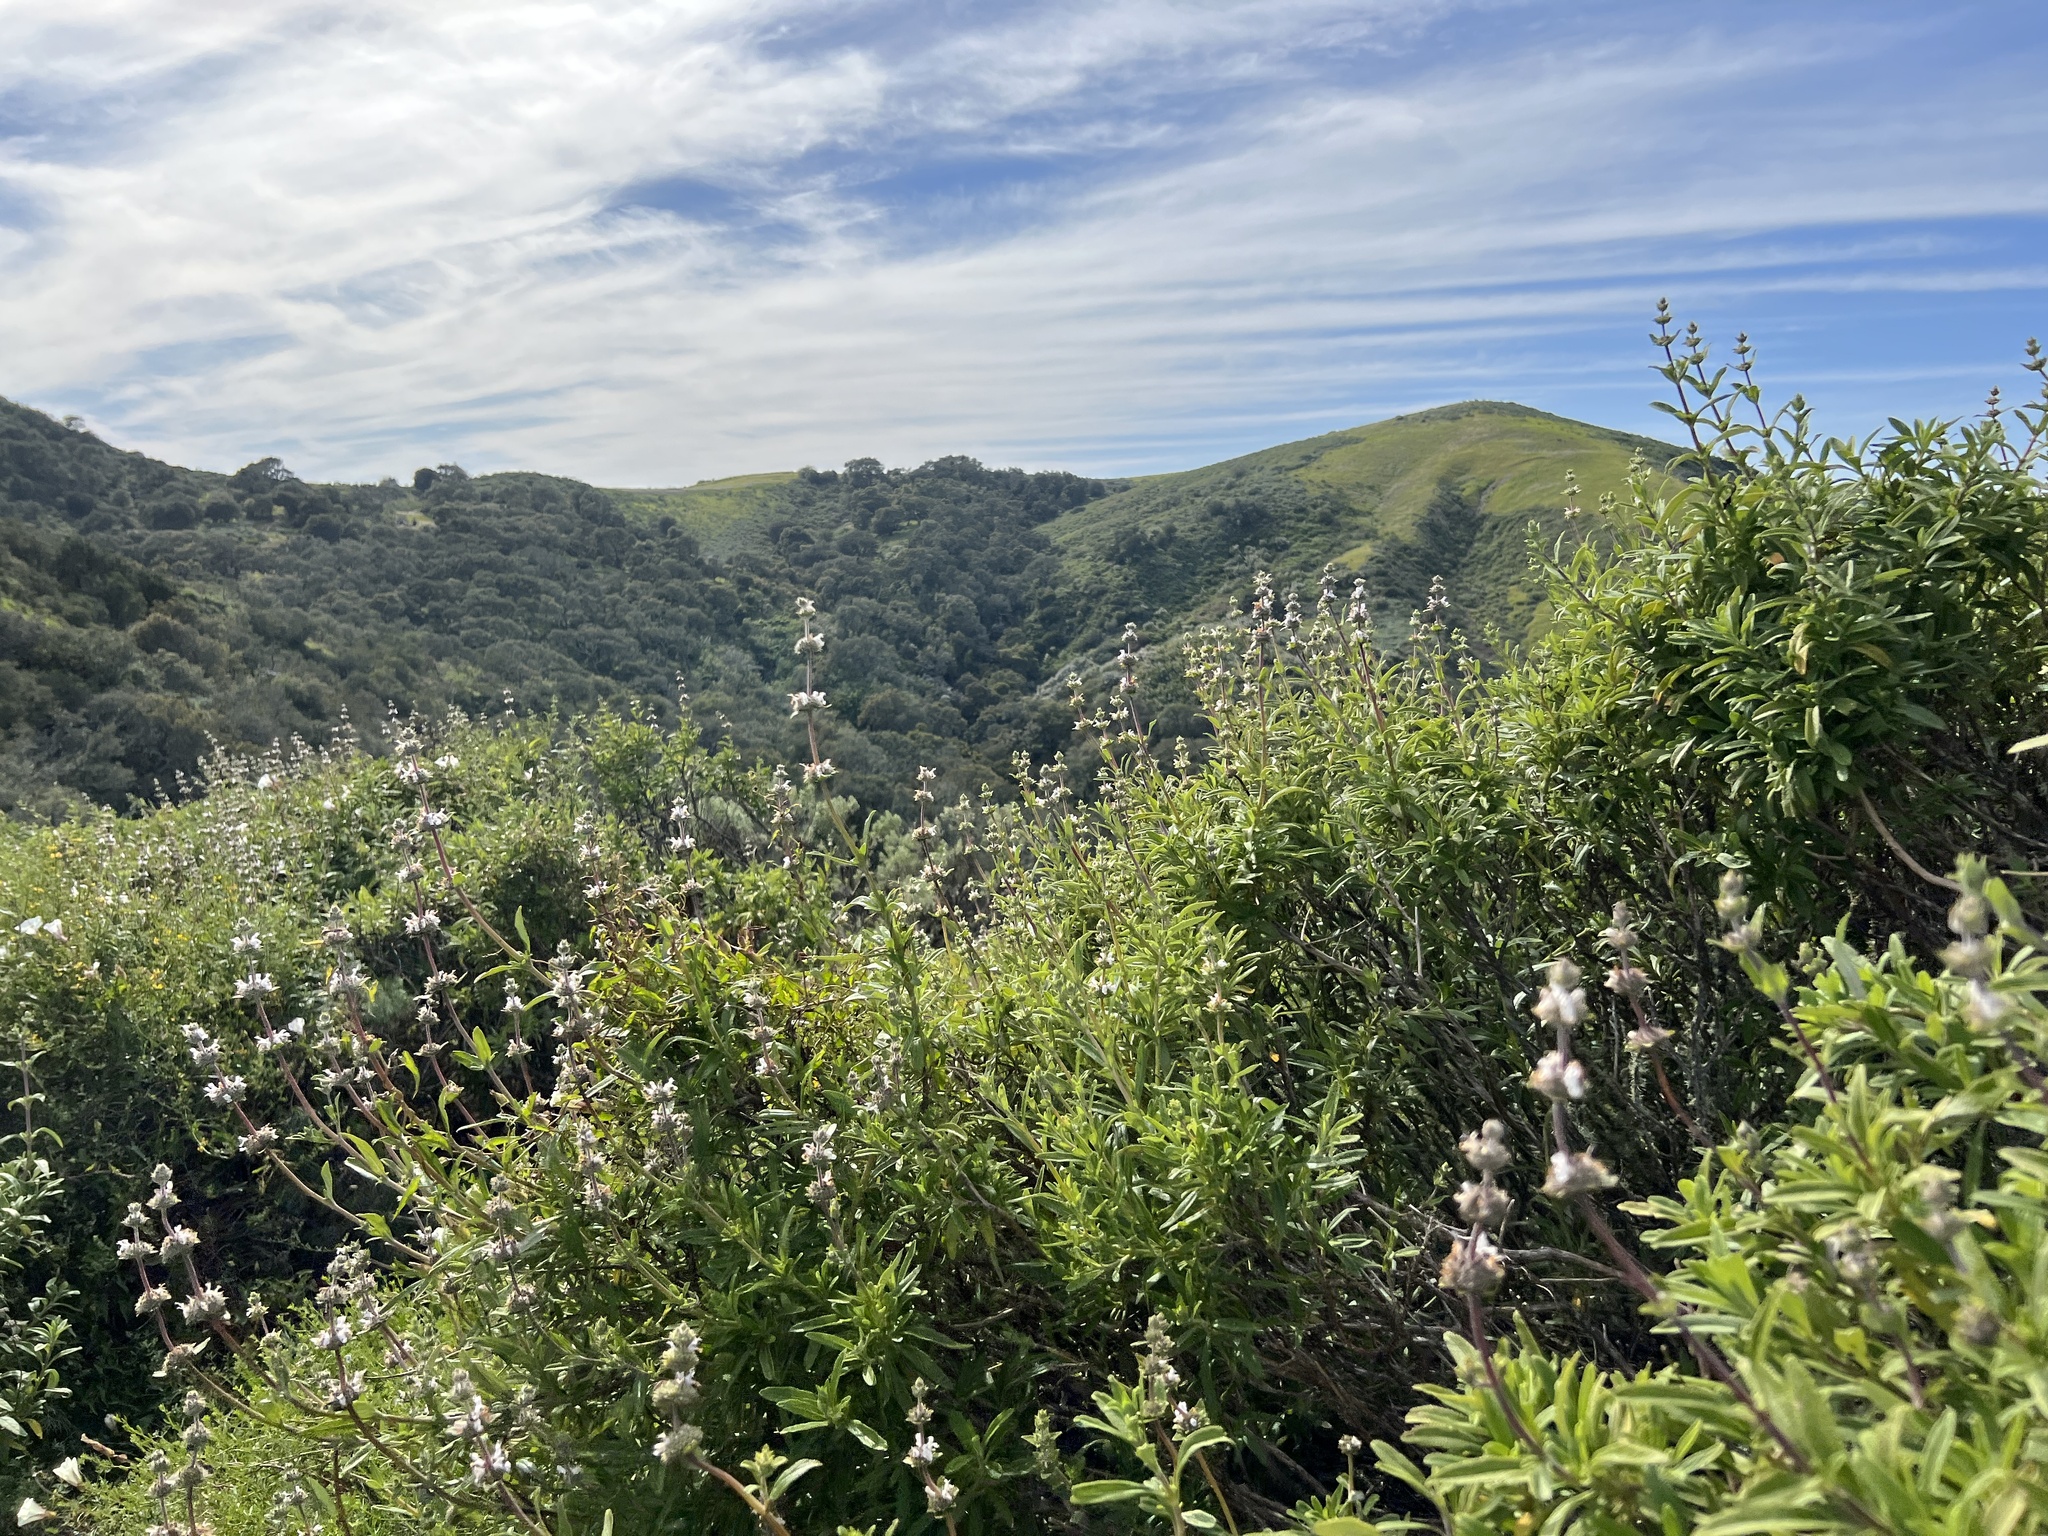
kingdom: Plantae
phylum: Tracheophyta
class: Magnoliopsida
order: Lamiales
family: Lamiaceae
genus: Salvia
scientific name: Salvia mellifera
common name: Black sage
